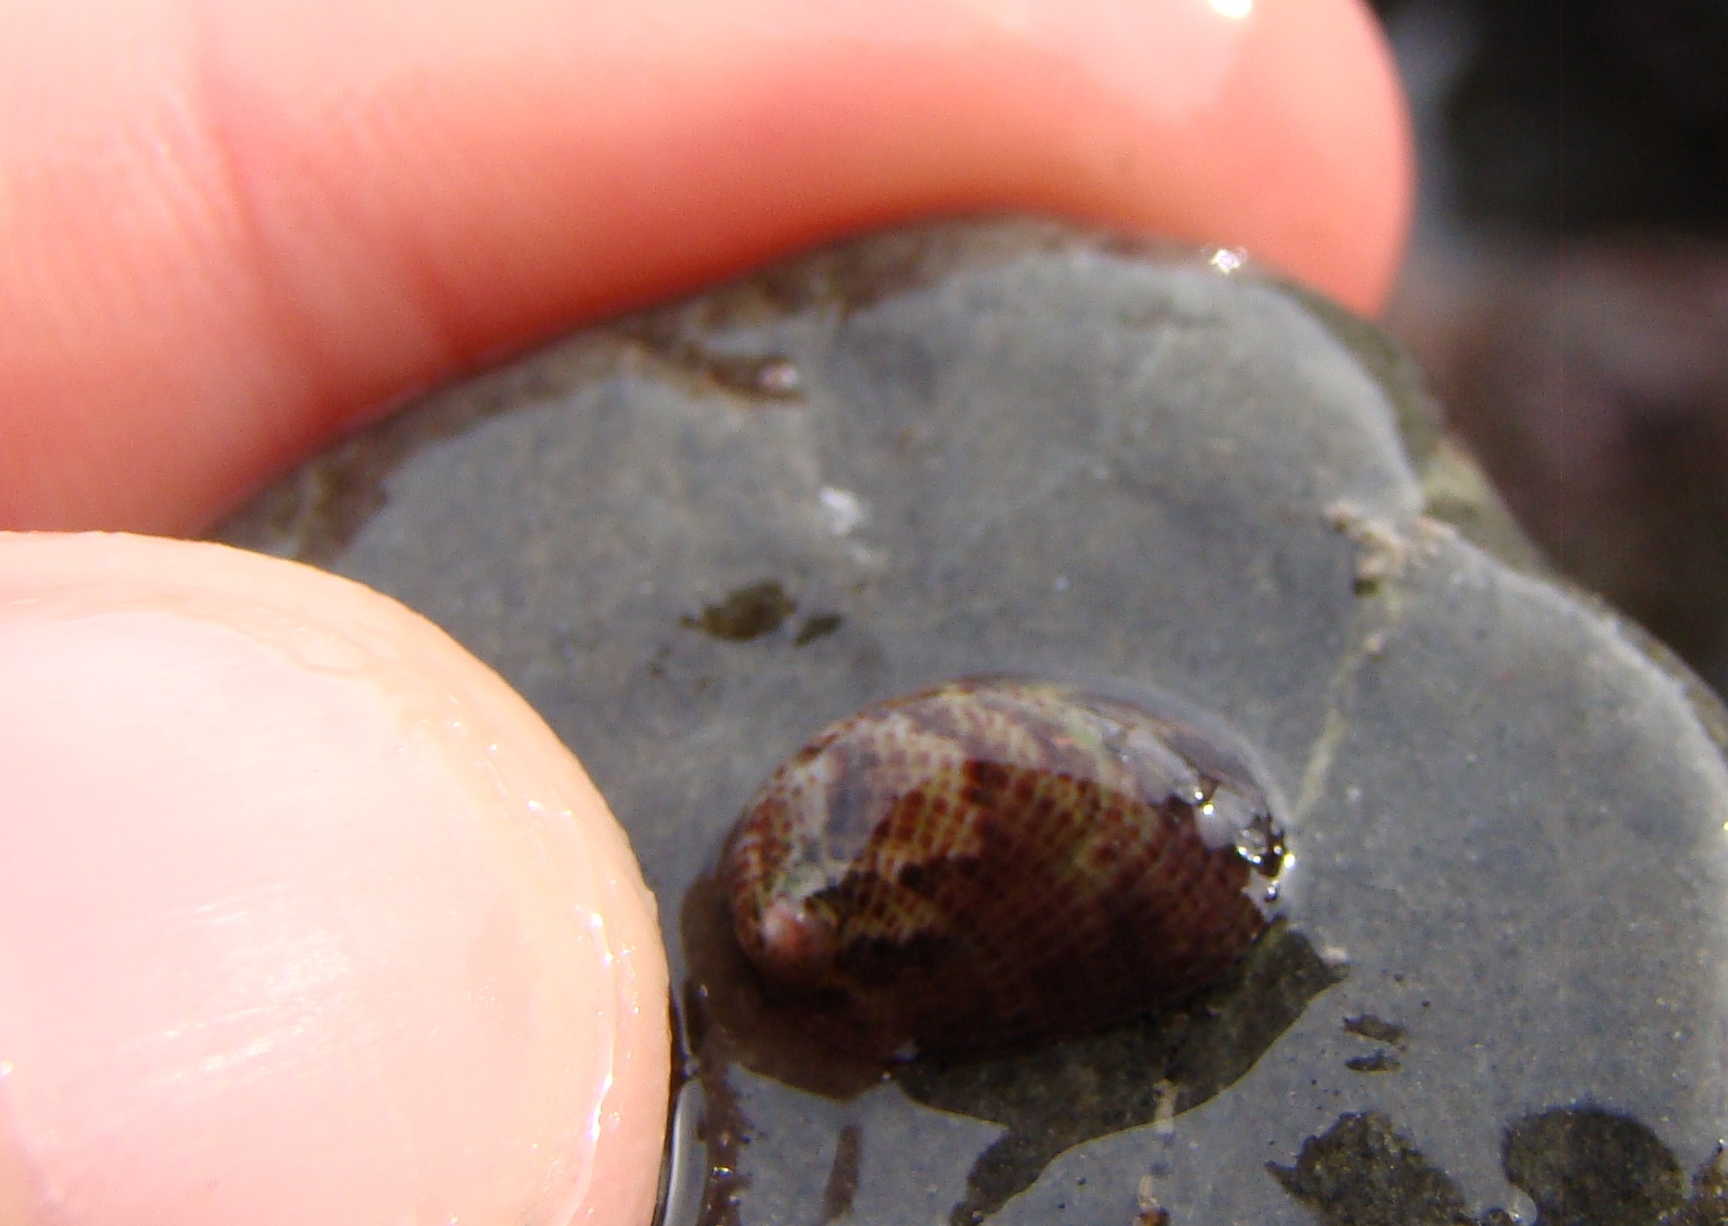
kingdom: Animalia
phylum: Mollusca
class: Gastropoda
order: Lepetellida
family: Haliotidae
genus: Haliotis
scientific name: Haliotis virginea
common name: Whitefoot paua
